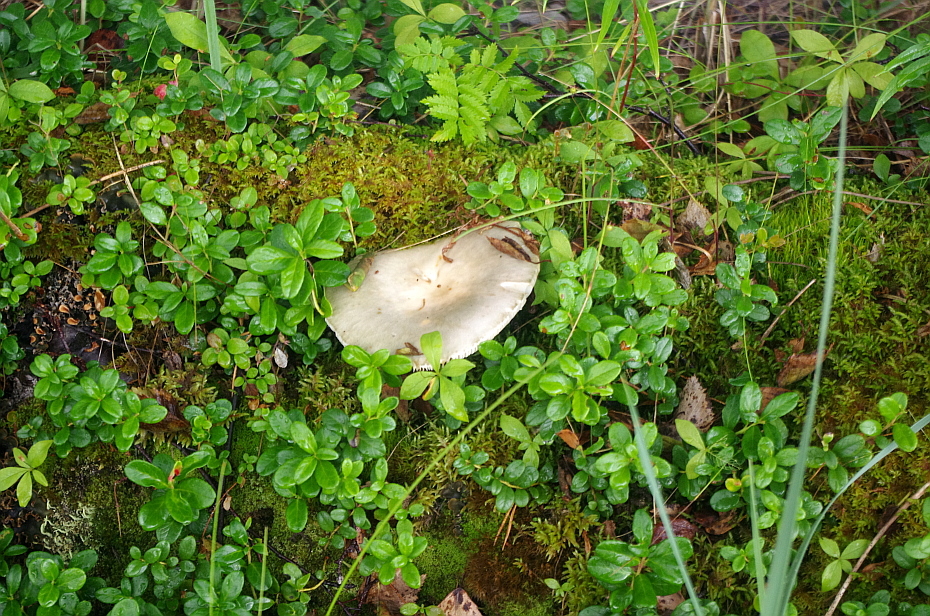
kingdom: Fungi
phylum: Basidiomycota
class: Agaricomycetes
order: Russulales
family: Russulaceae
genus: Russula
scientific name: Russula
